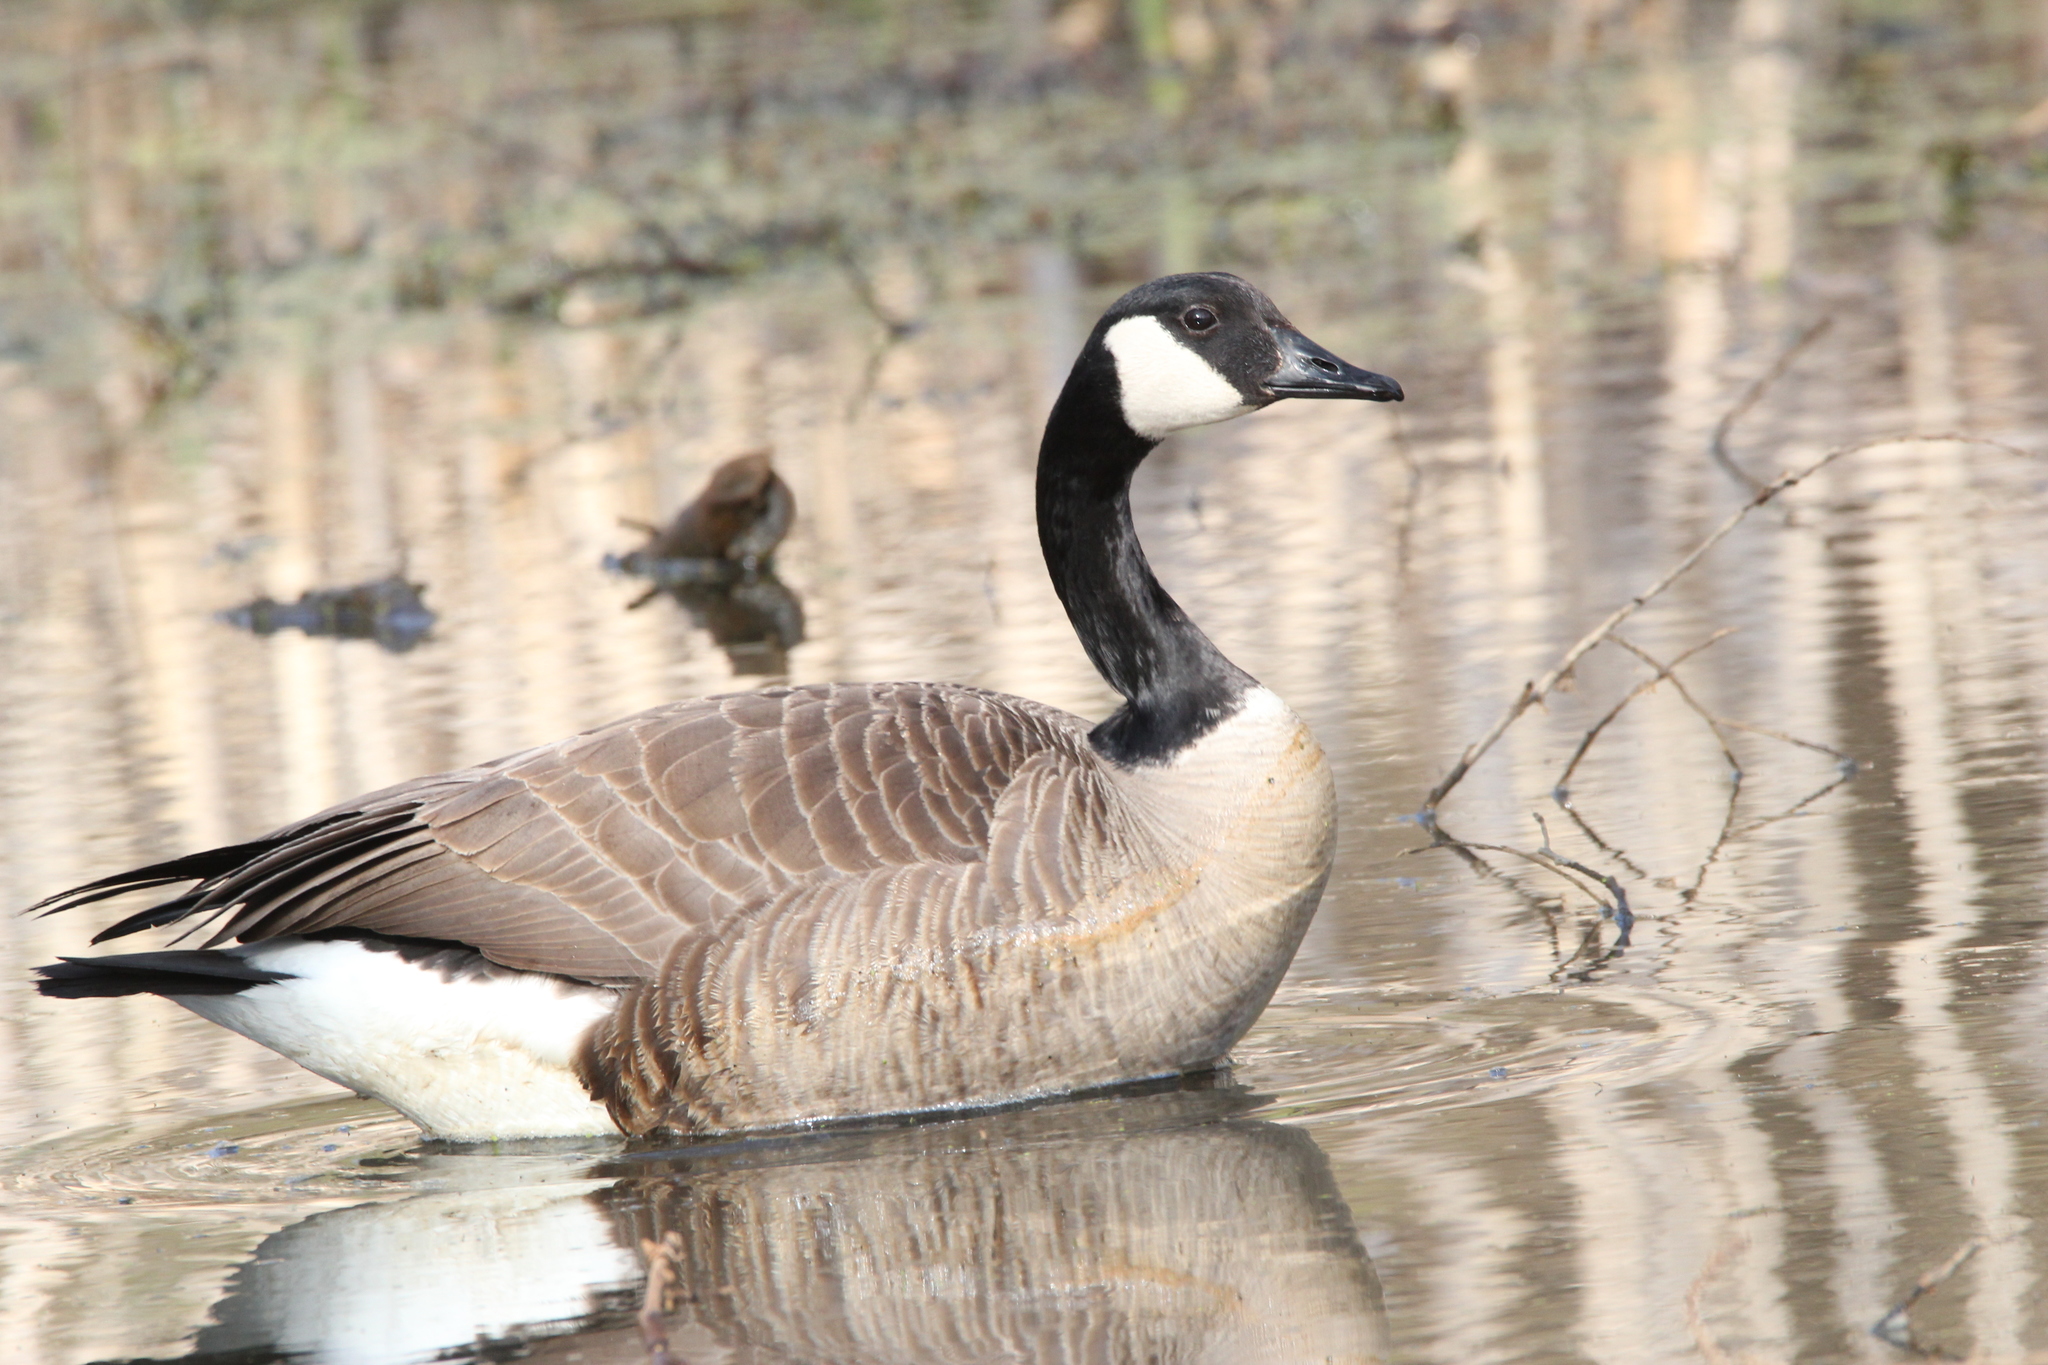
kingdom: Animalia
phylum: Chordata
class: Aves
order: Anseriformes
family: Anatidae
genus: Branta
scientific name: Branta canadensis
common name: Canada goose
